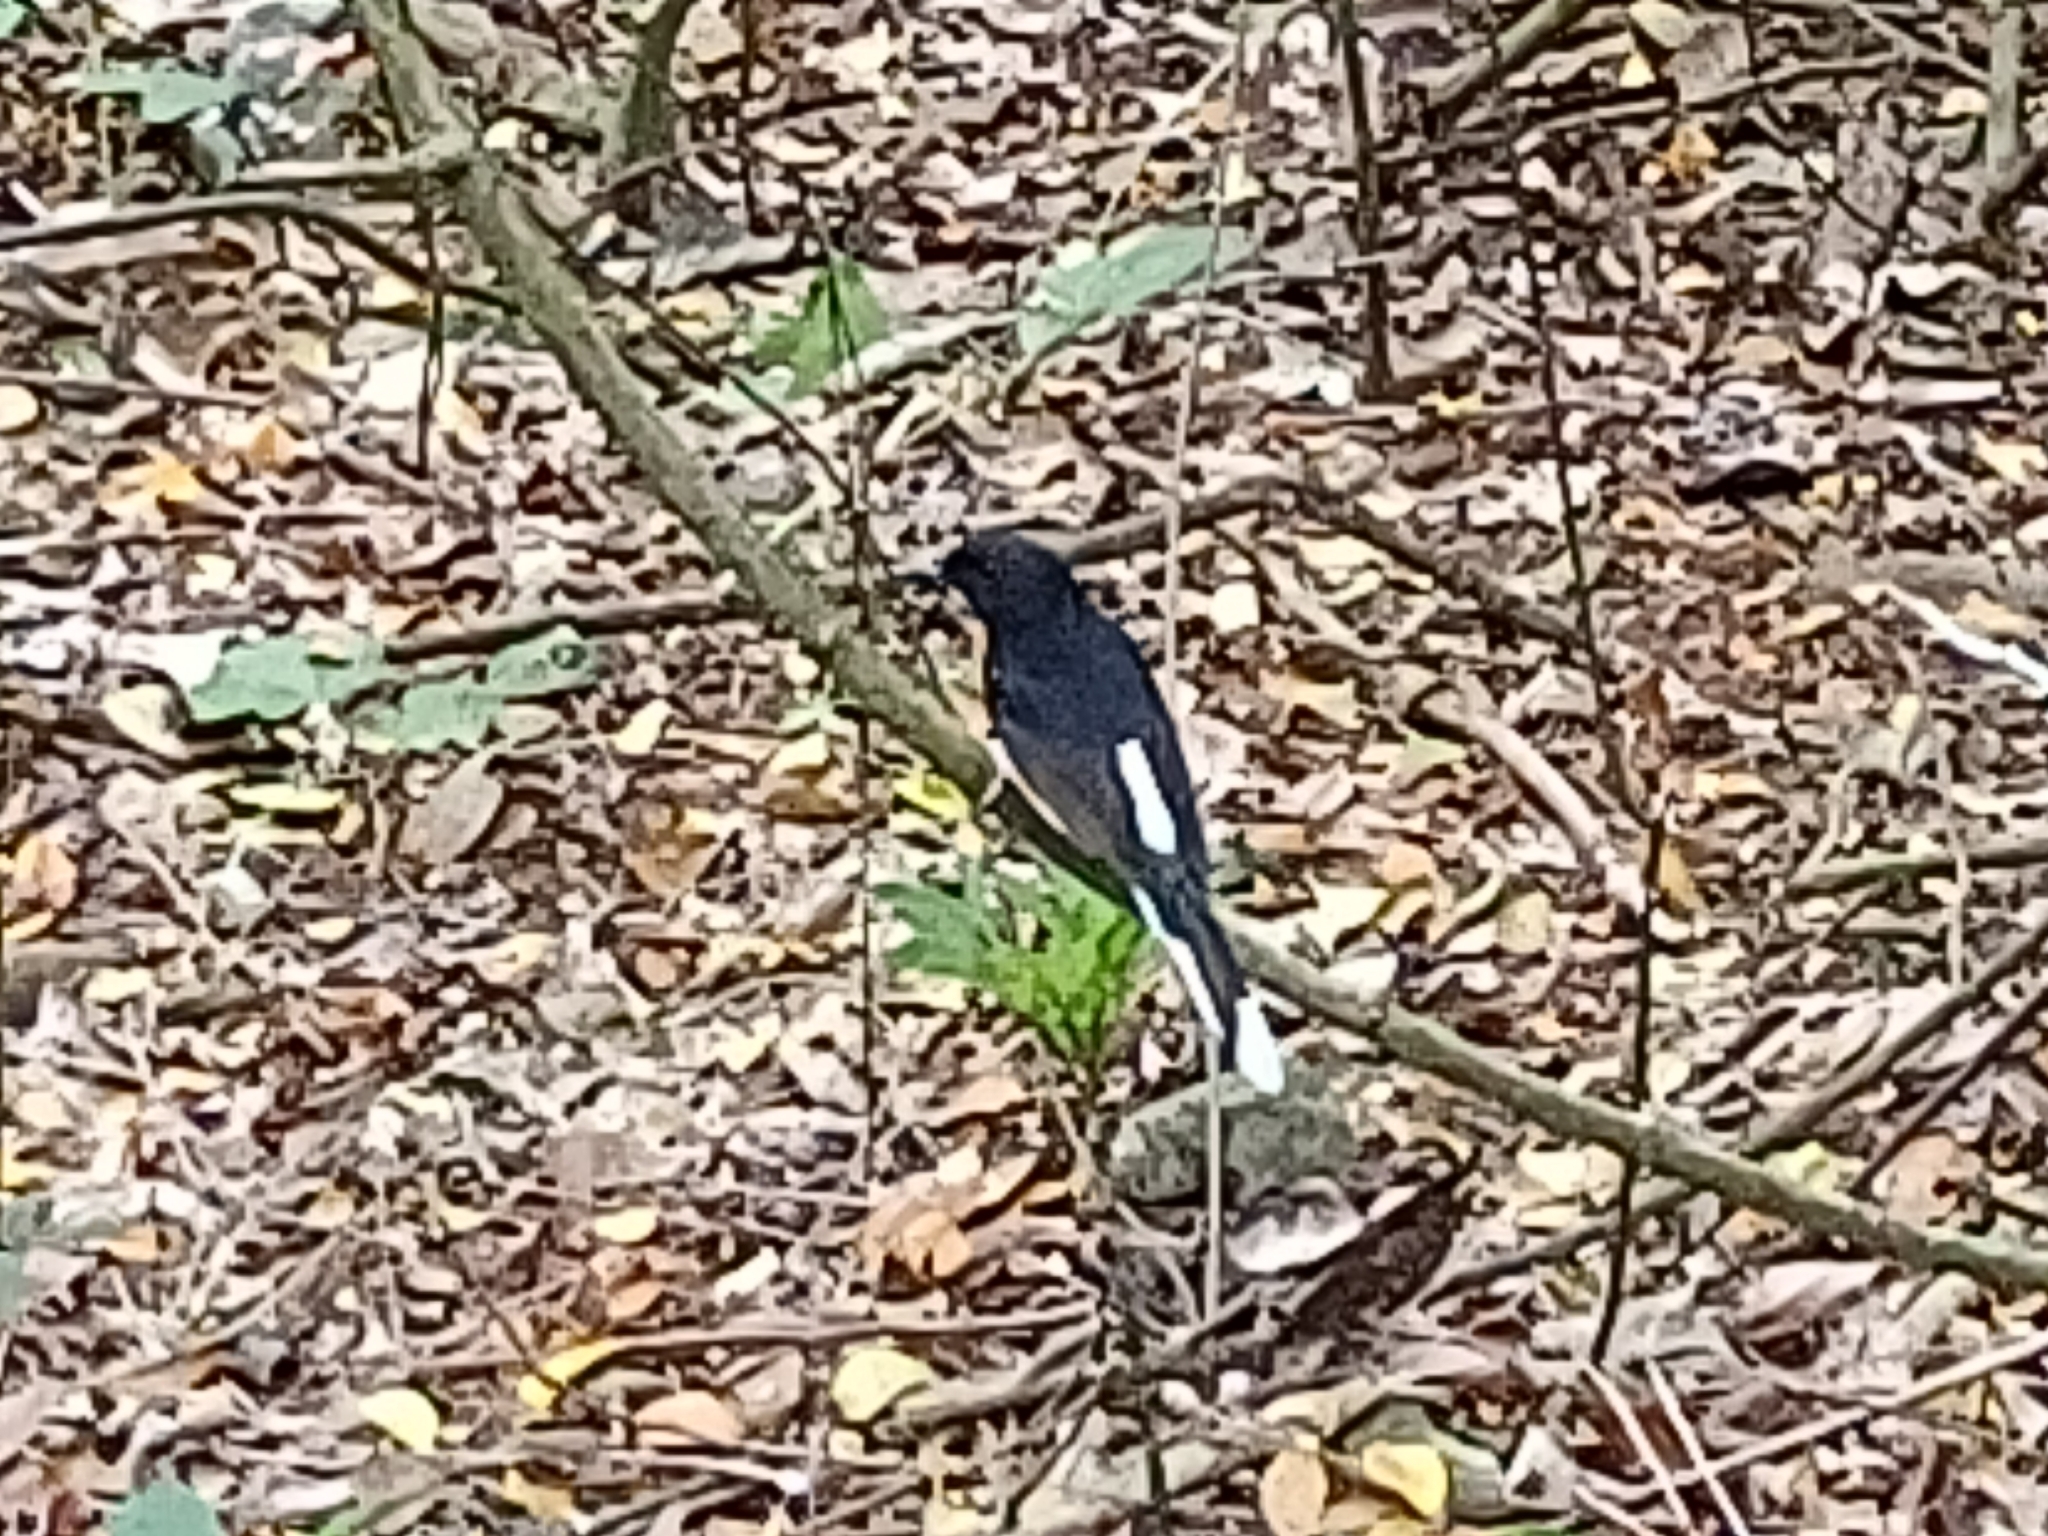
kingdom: Animalia
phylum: Chordata
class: Aves
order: Passeriformes
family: Muscicapidae
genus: Copsychus
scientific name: Copsychus malabaricus
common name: White-rumped shama
